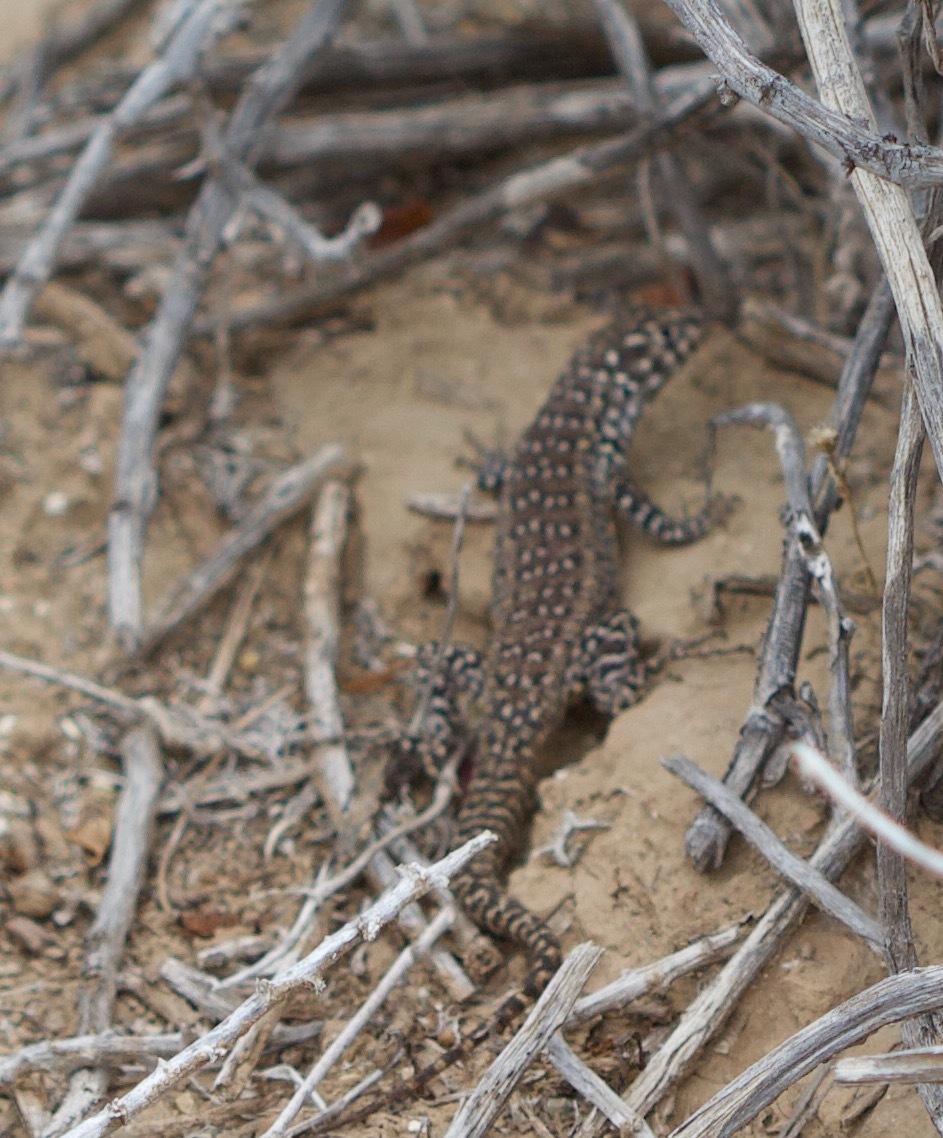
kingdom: Animalia
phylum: Chordata
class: Squamata
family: Liolaemidae
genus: Liolaemus
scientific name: Liolaemus zapallarensis
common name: Zapallaren tree iguana
